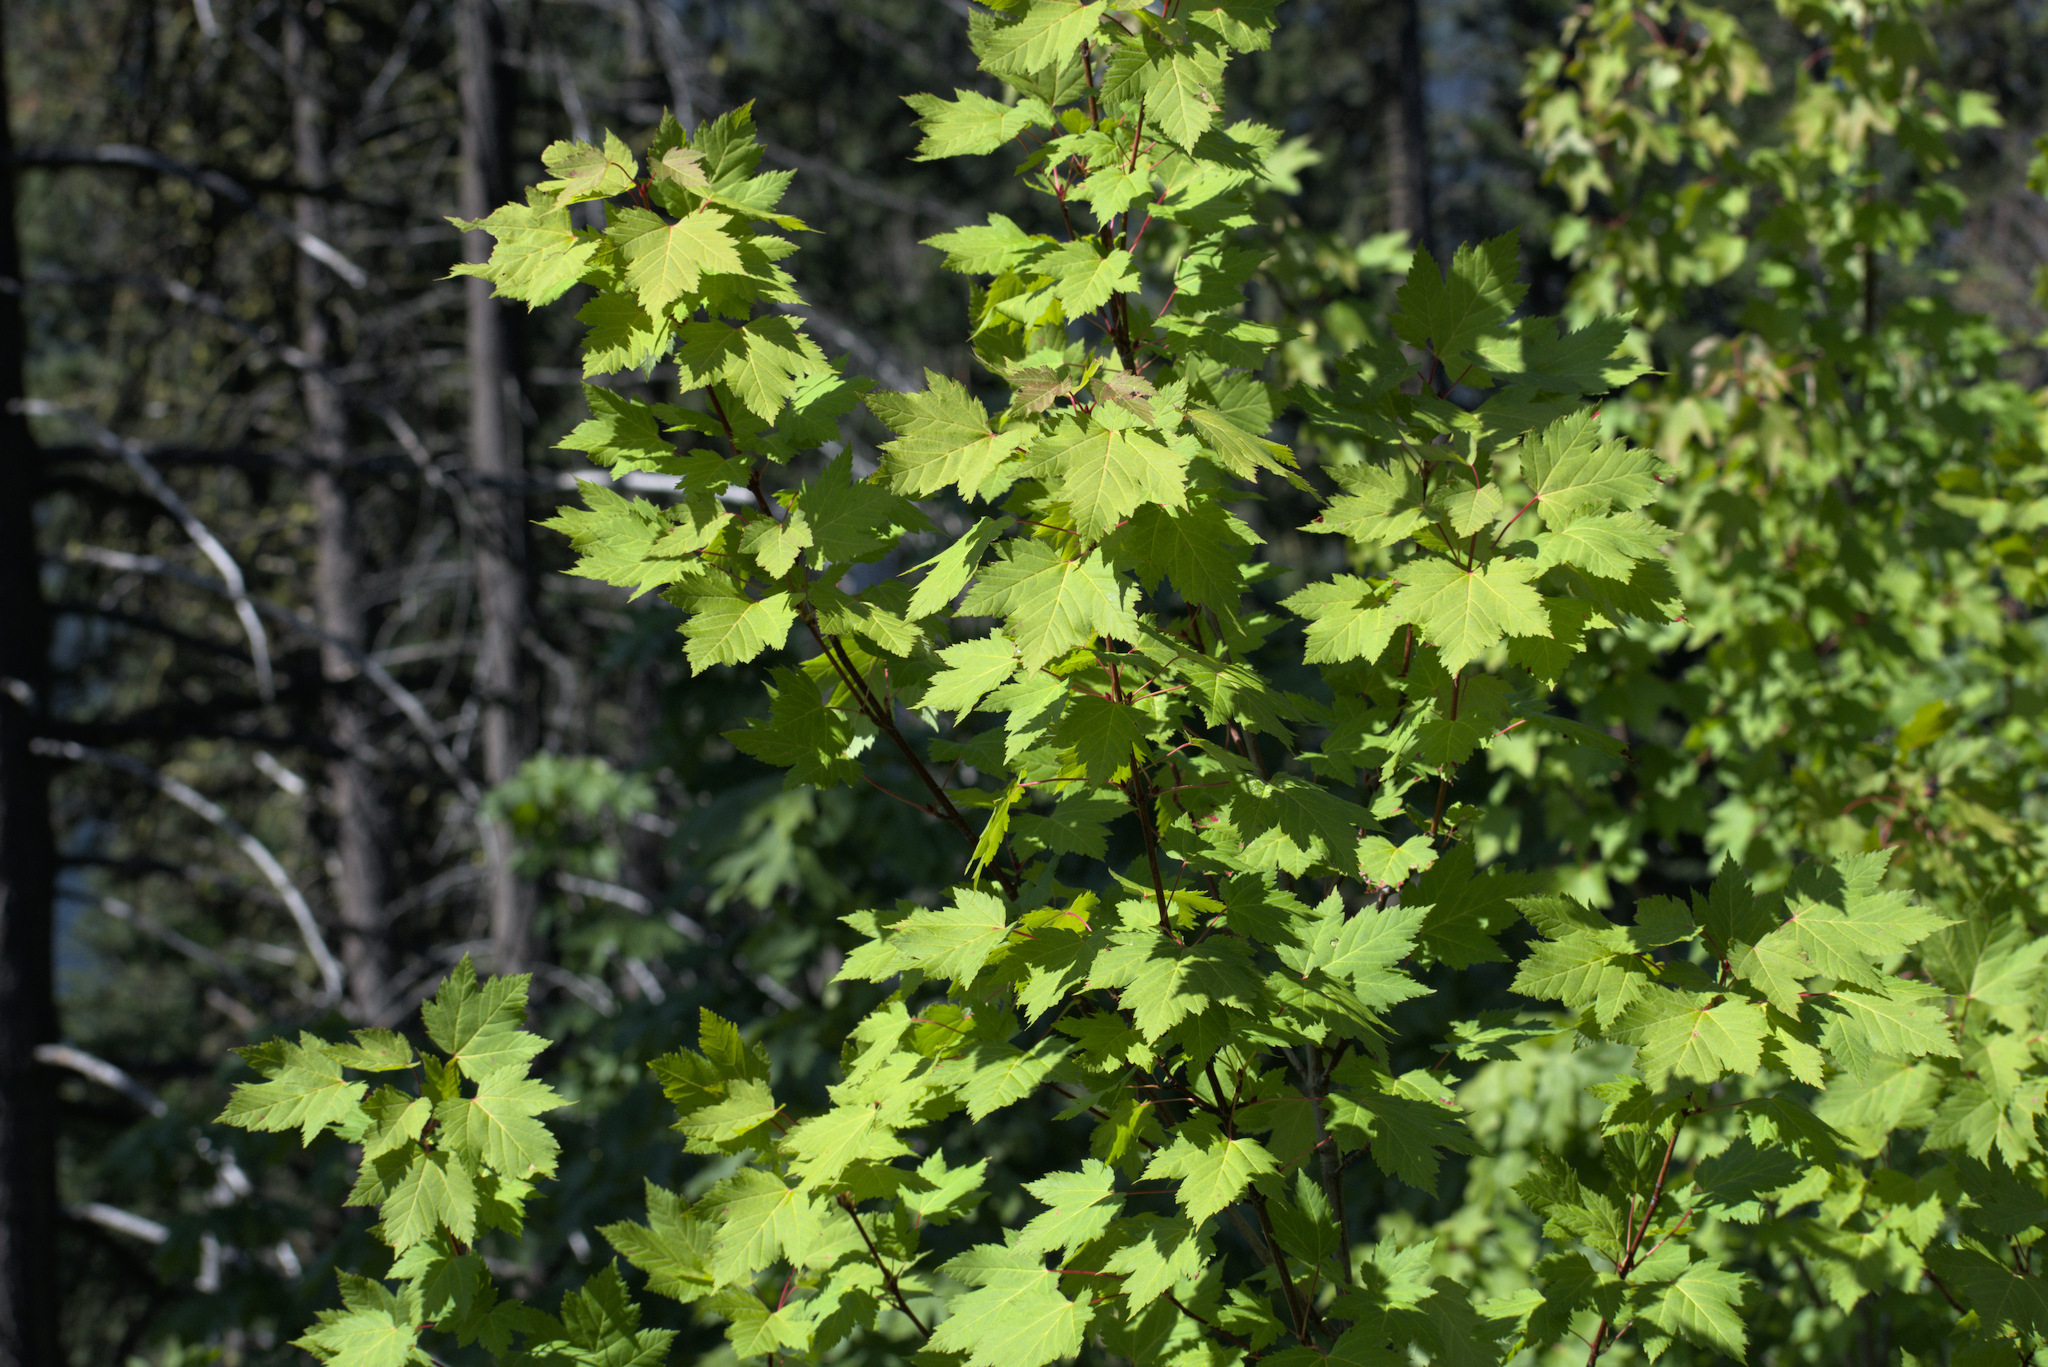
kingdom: Plantae
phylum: Tracheophyta
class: Magnoliopsida
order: Sapindales
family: Sapindaceae
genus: Acer
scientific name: Acer glabrum
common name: Rocky mountain maple
